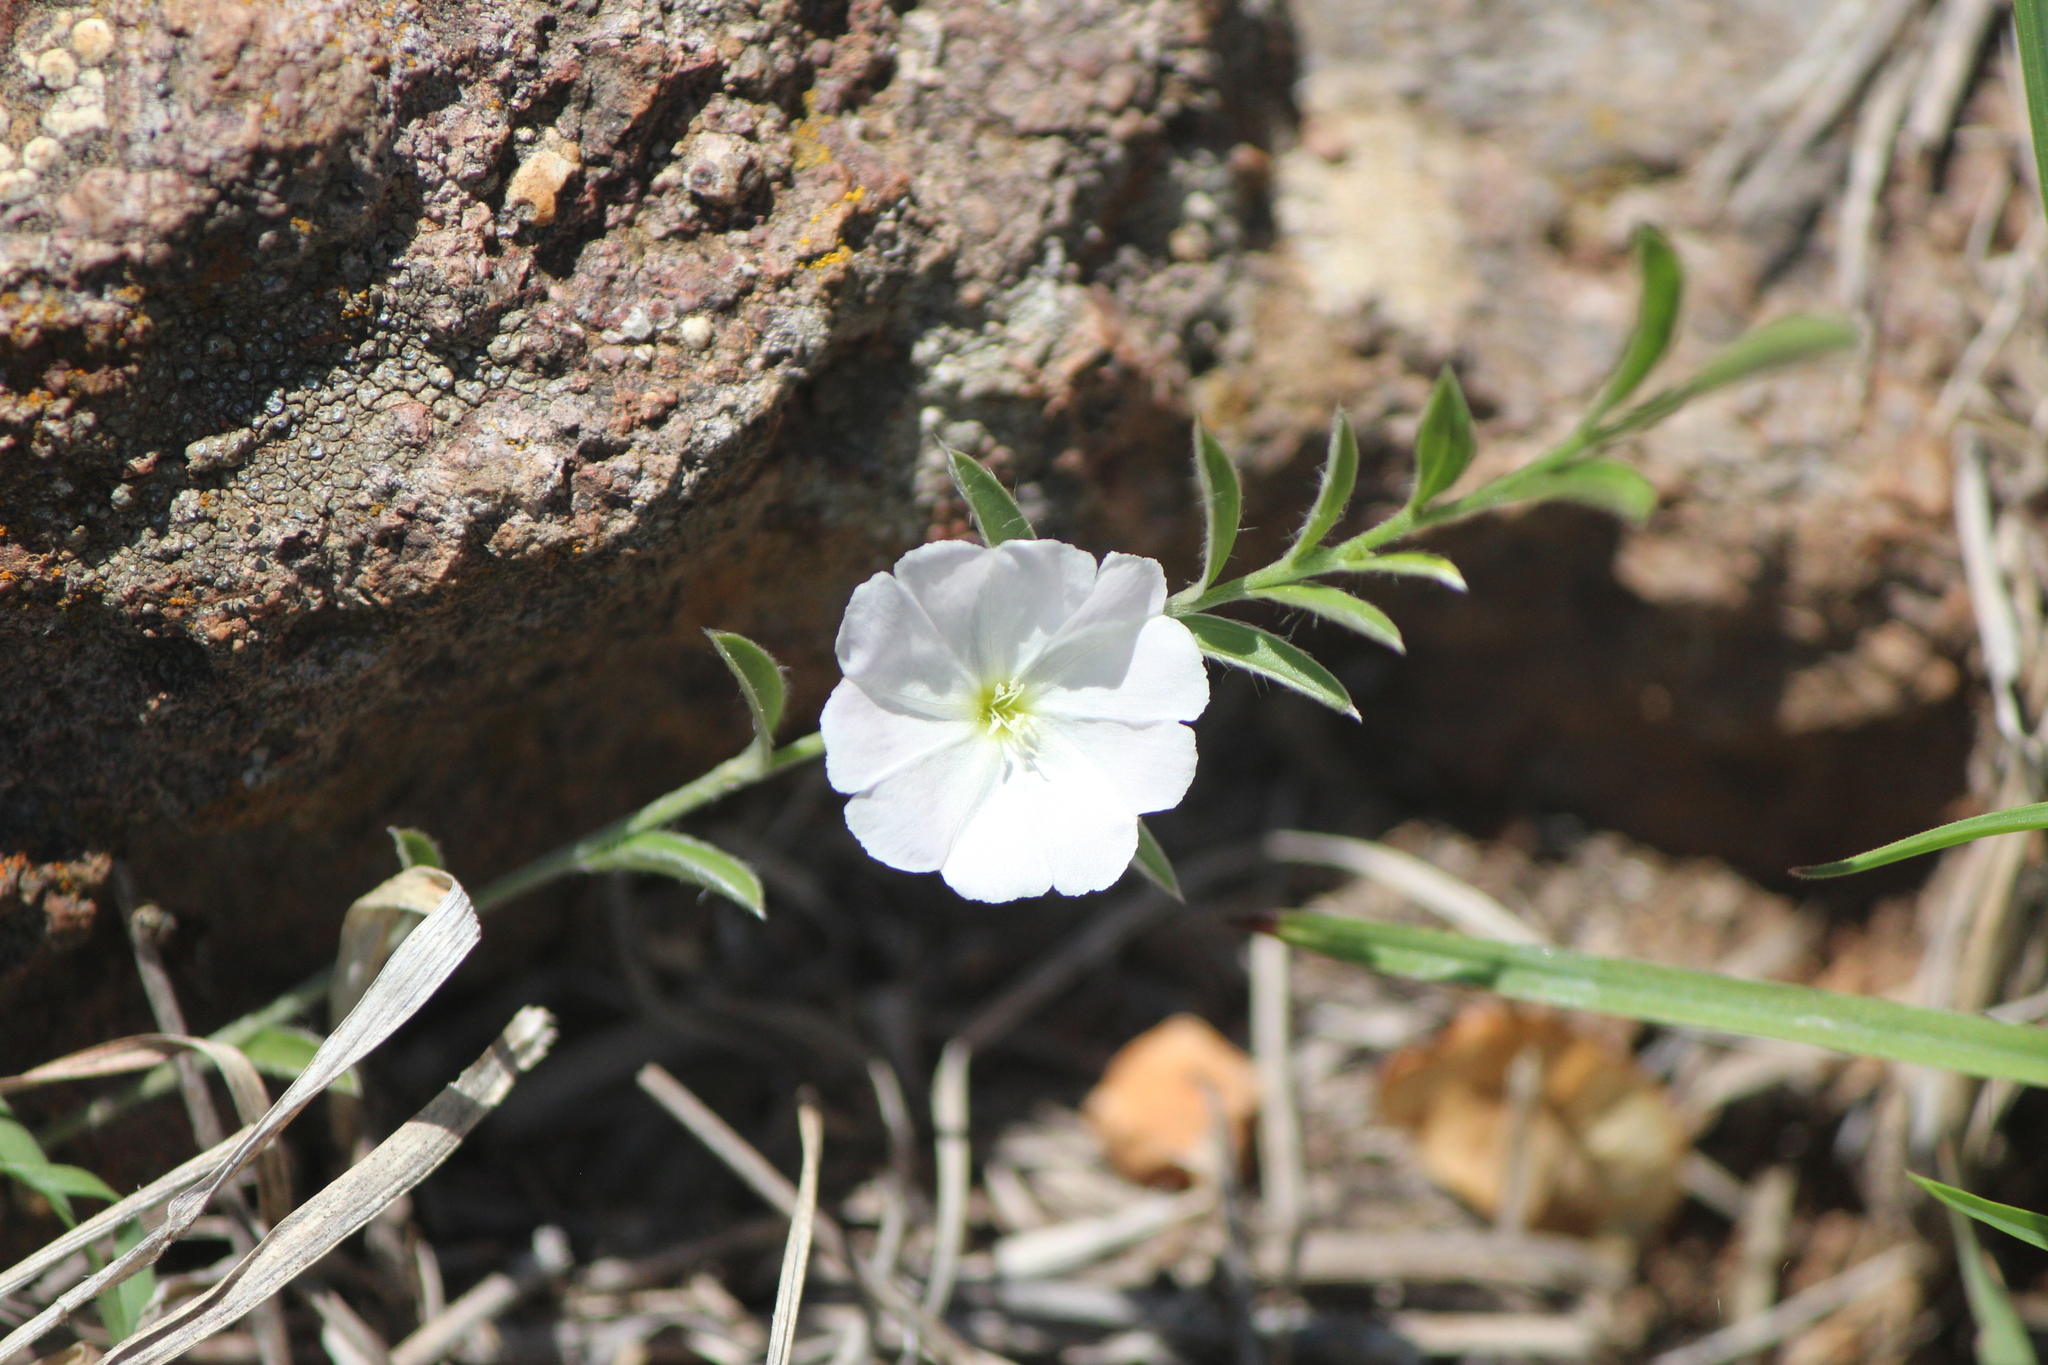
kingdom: Plantae
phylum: Tracheophyta
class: Magnoliopsida
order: Solanales
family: Convolvulaceae
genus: Evolvulus
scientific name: Evolvulus sericeus
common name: Blue dots
